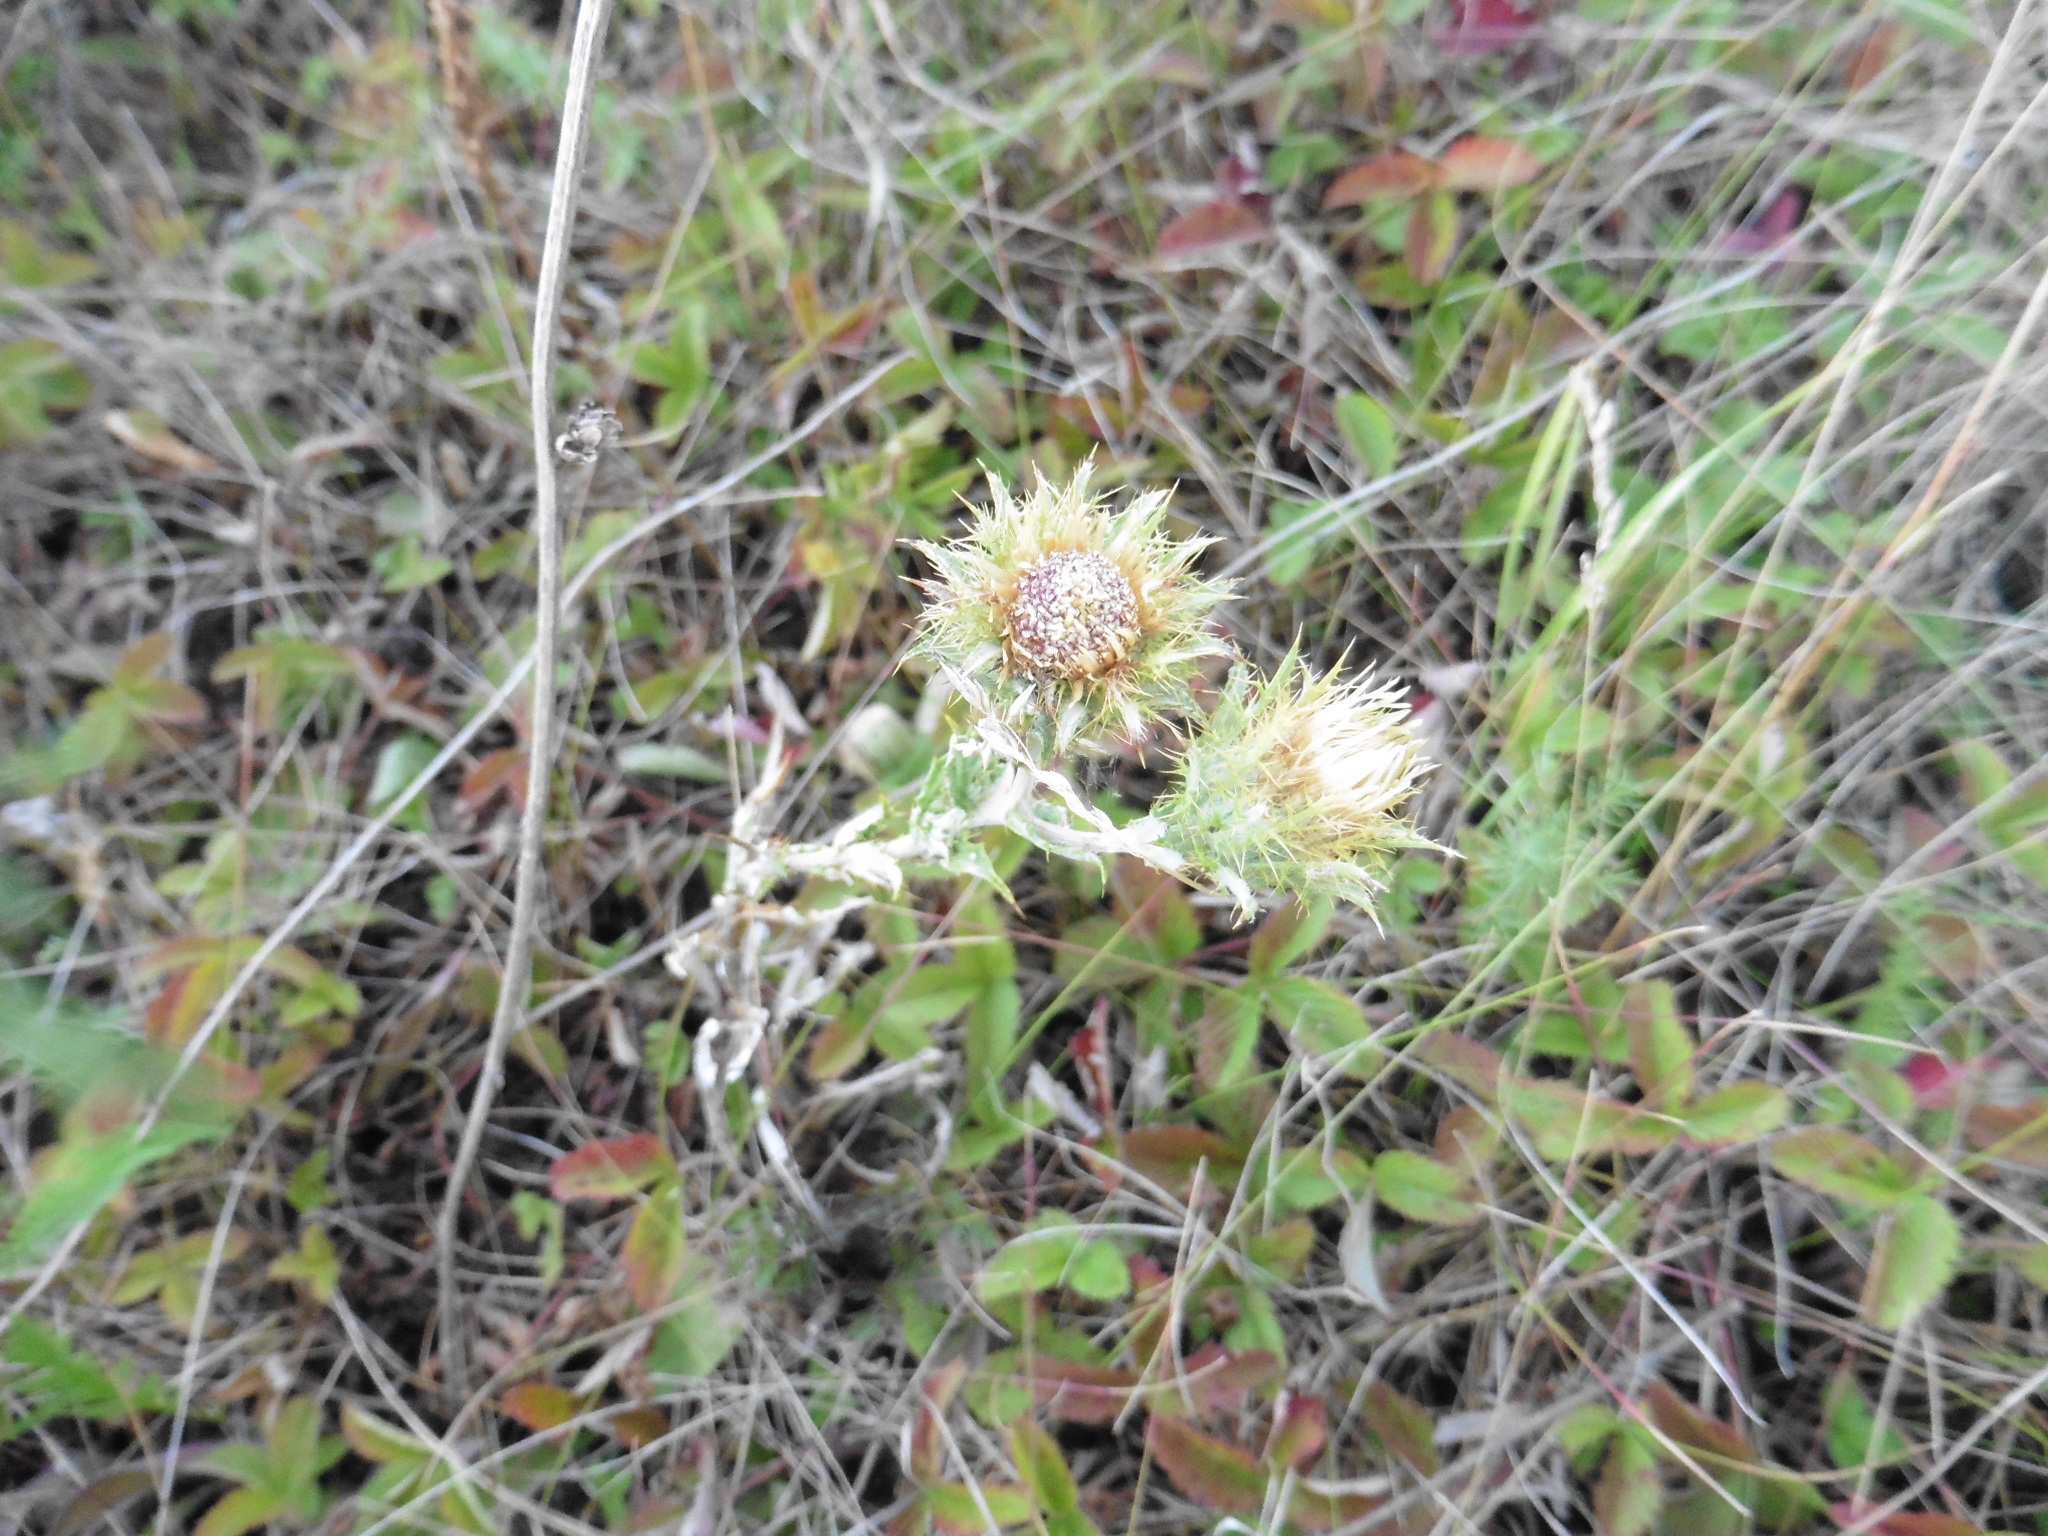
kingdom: Plantae
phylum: Tracheophyta
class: Magnoliopsida
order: Asterales
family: Asteraceae
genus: Carlina
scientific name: Carlina biebersteinii
